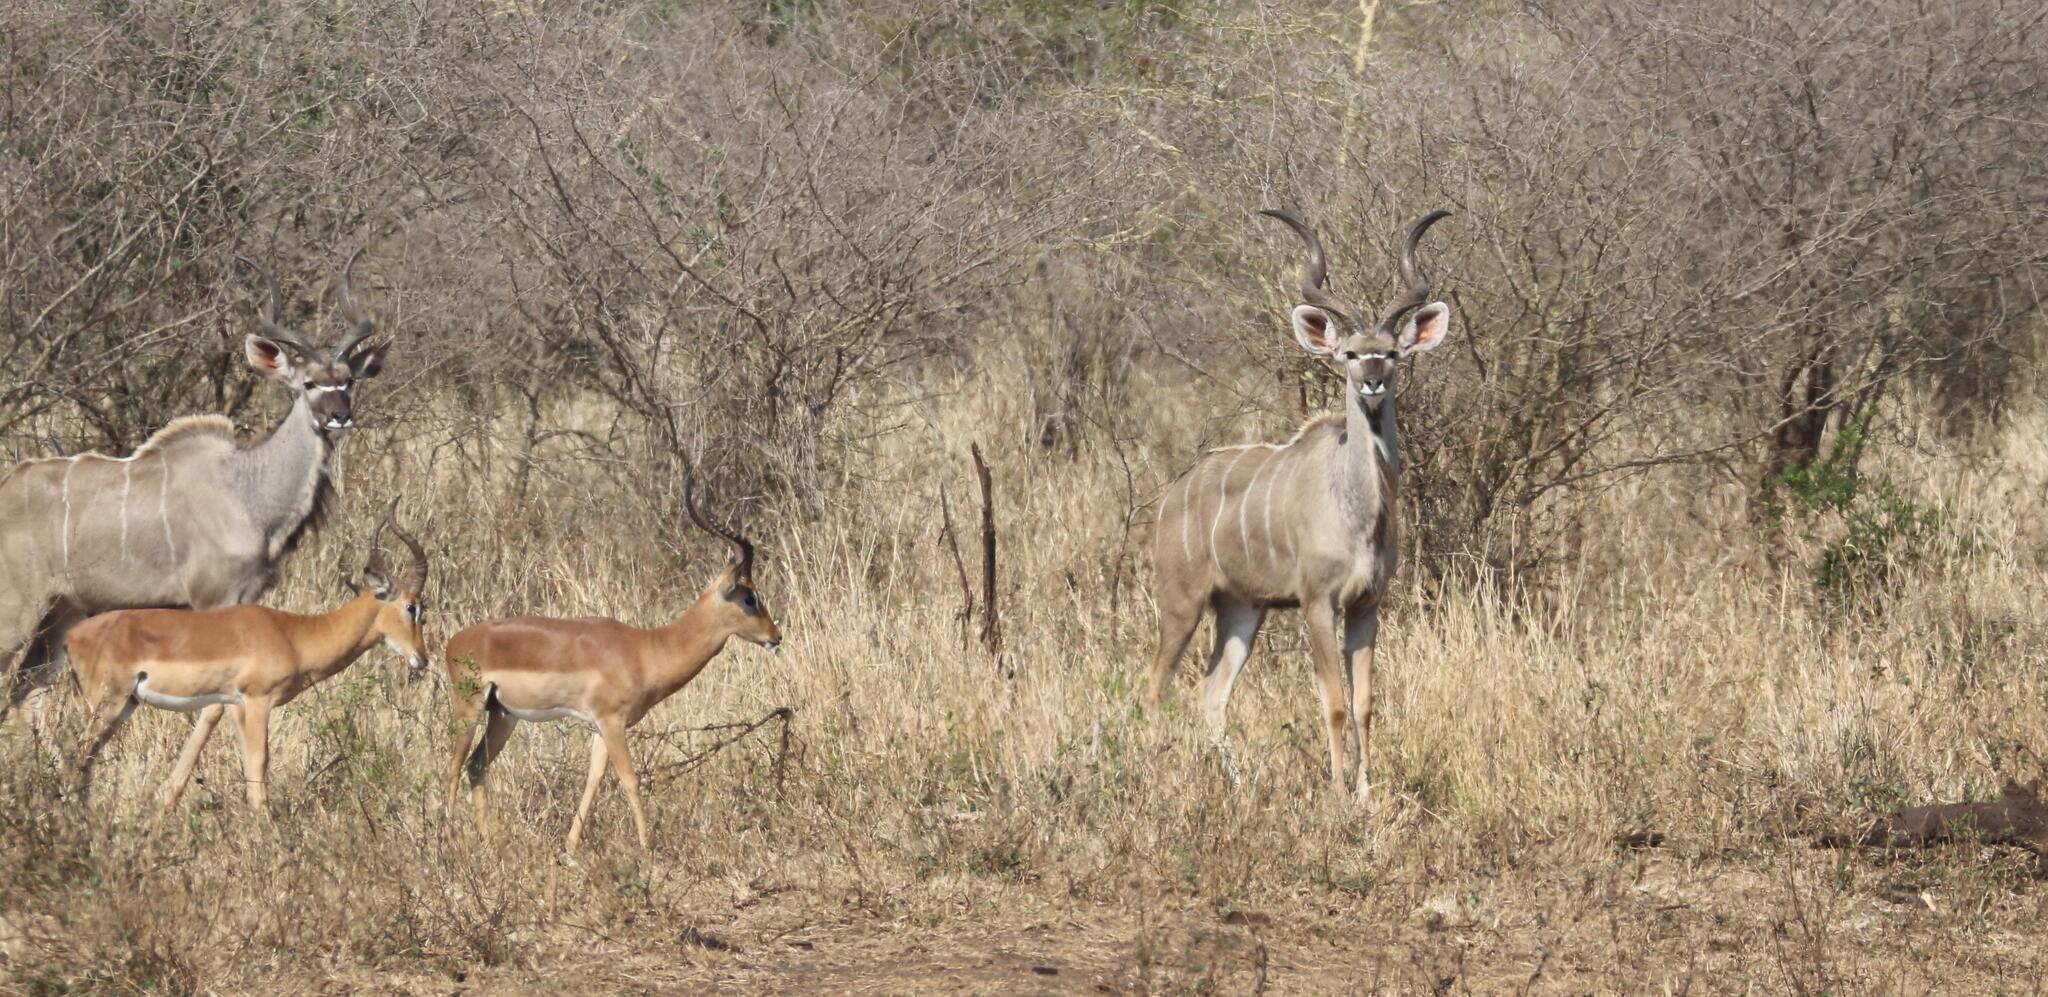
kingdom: Animalia
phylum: Chordata
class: Mammalia
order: Artiodactyla
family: Bovidae
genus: Aepyceros
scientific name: Aepyceros melampus
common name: Impala
